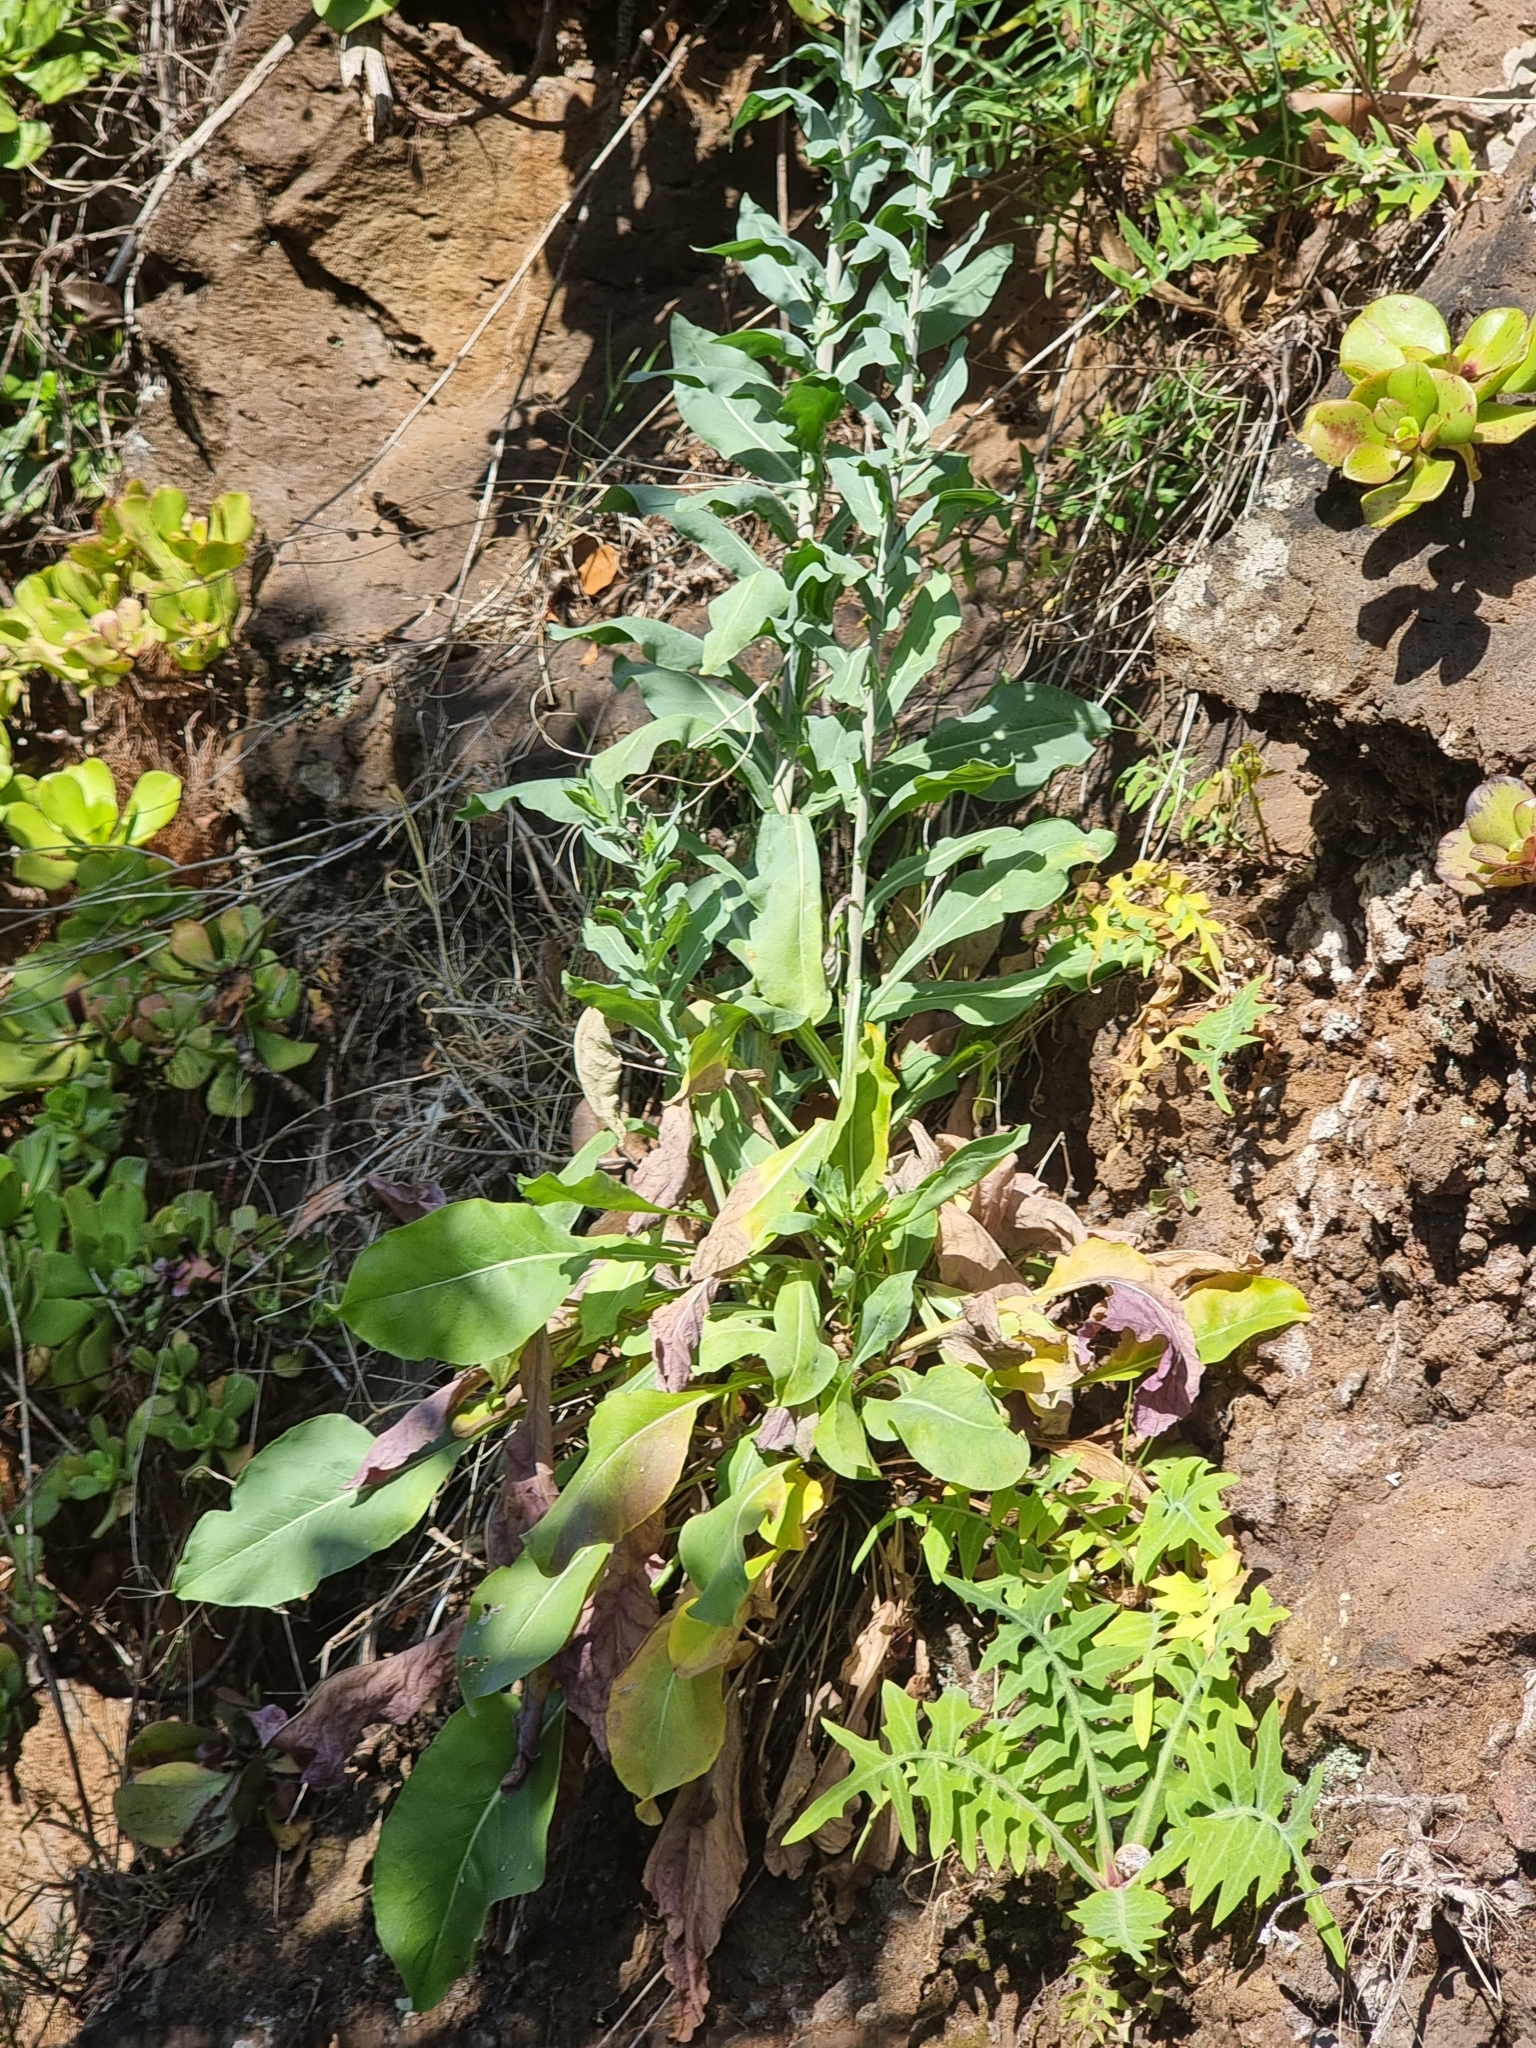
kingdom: Plantae
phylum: Tracheophyta
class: Magnoliopsida
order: Brassicales
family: Brassicaceae
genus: Isatis
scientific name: Isatis tinctoria
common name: Woad
